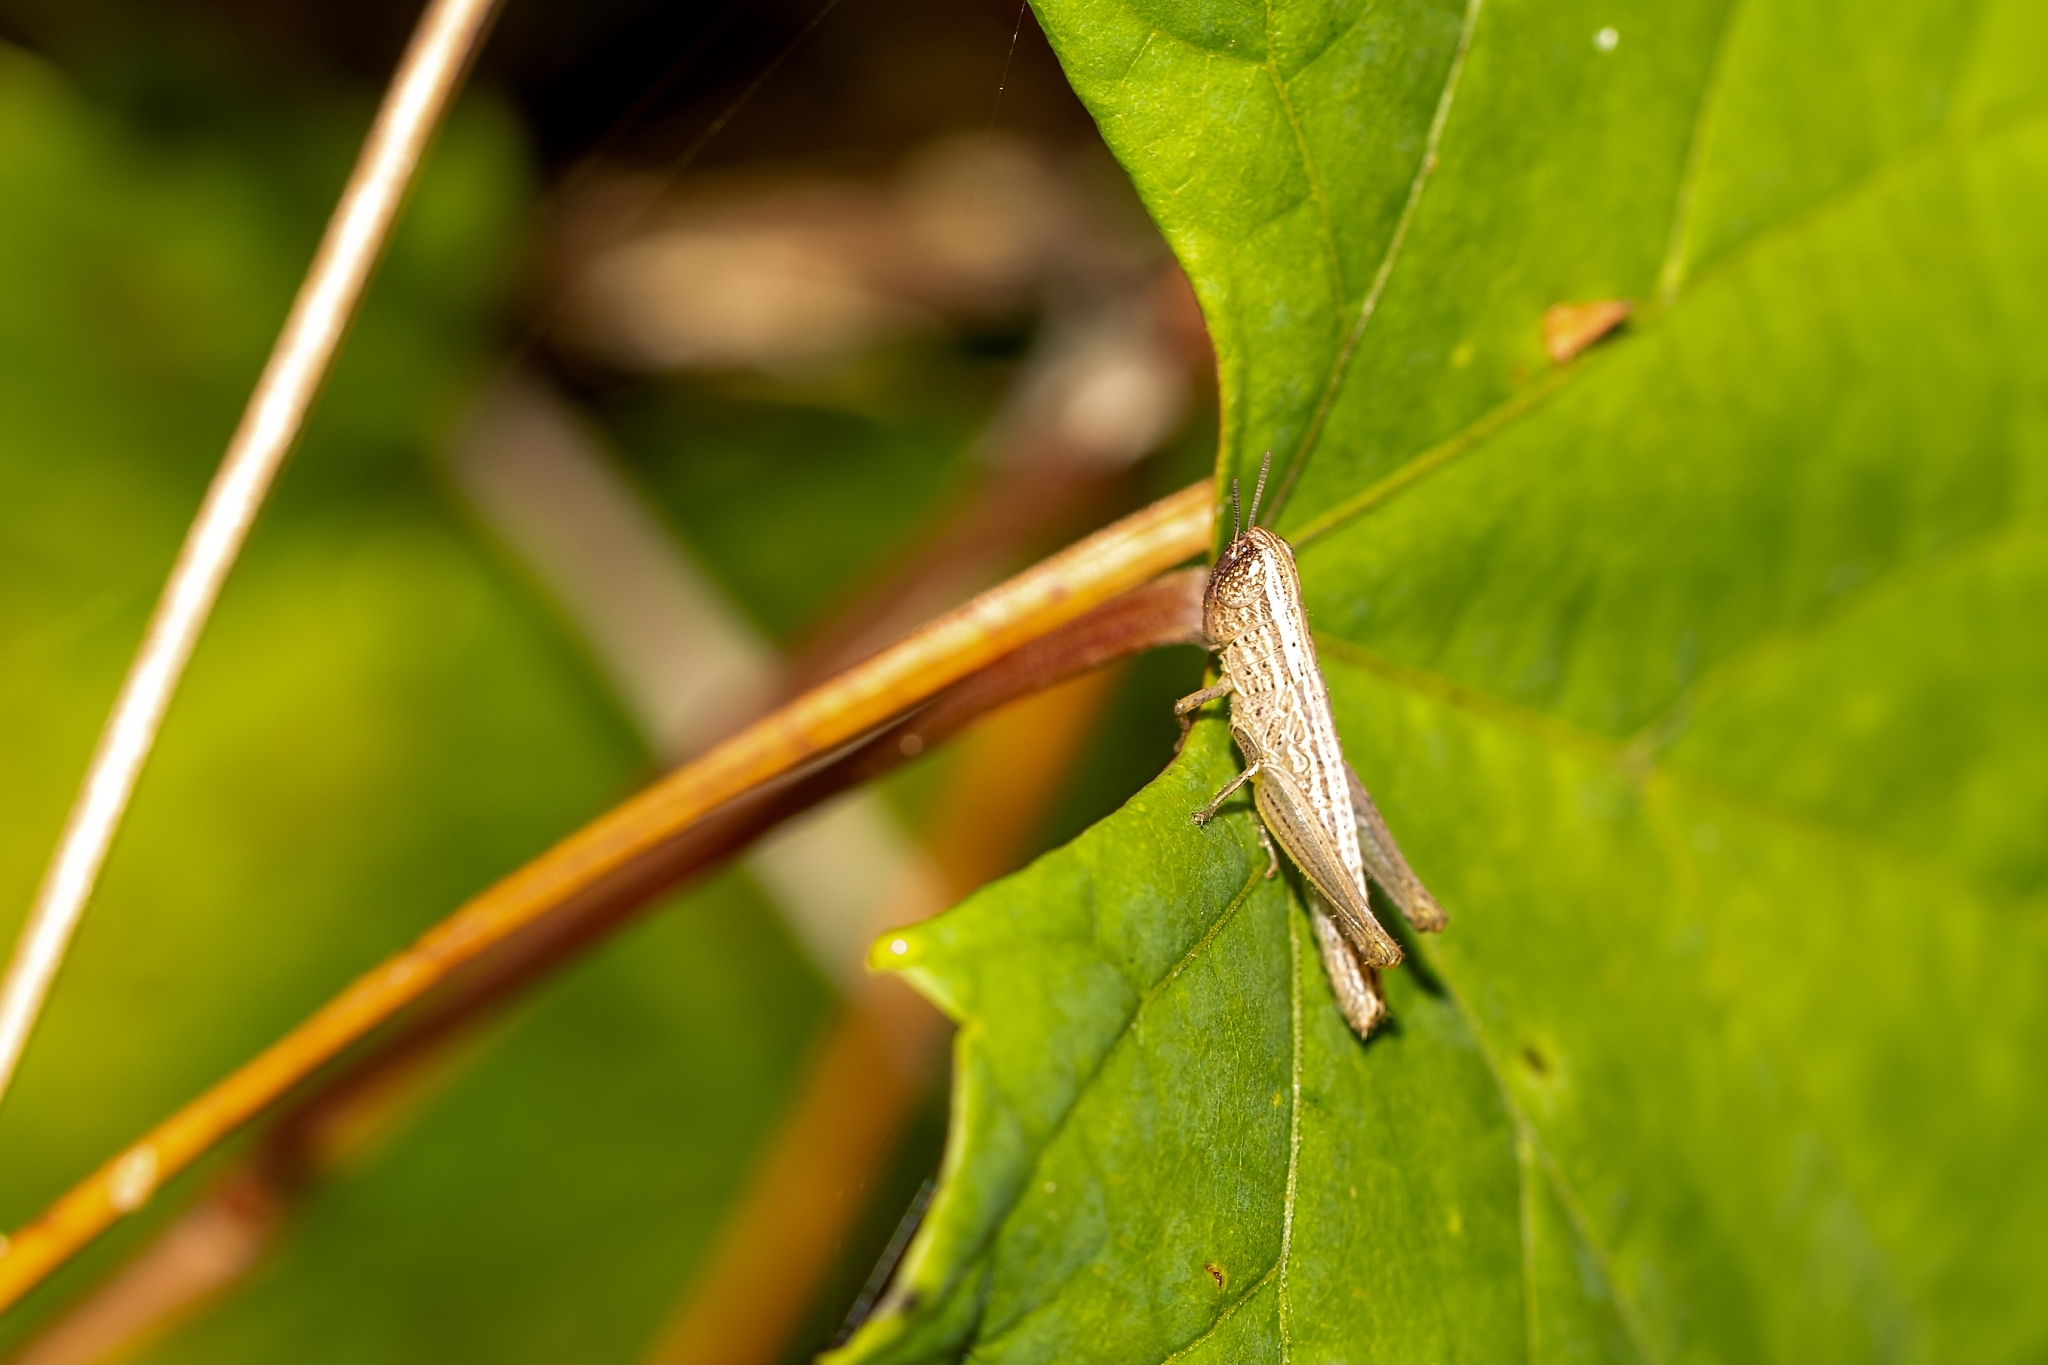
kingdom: Animalia
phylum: Arthropoda
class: Insecta
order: Orthoptera
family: Acrididae
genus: Amblytropidia
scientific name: Amblytropidia mysteca
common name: Brown winter grasshopper
